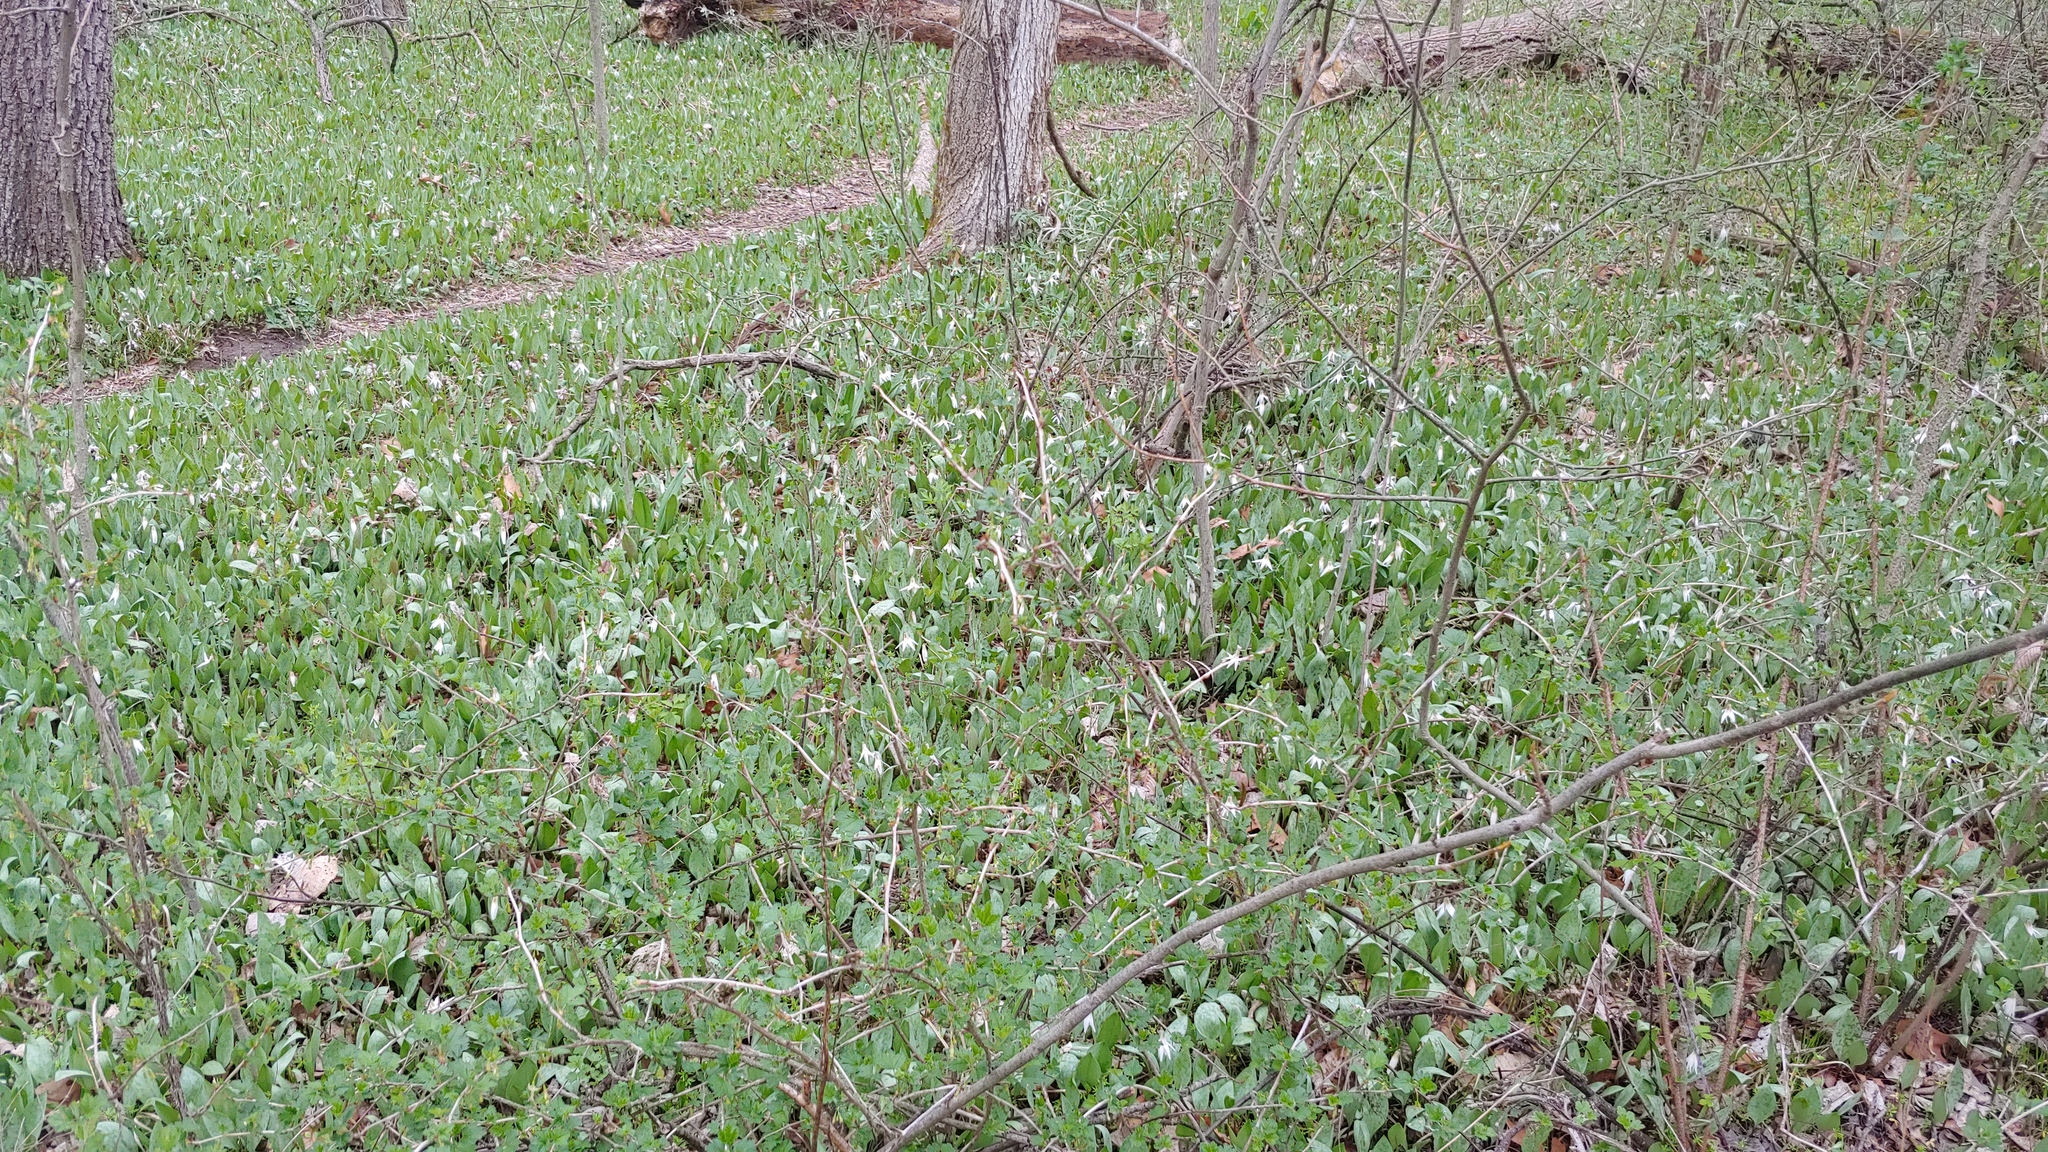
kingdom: Plantae
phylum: Tracheophyta
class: Liliopsida
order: Liliales
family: Liliaceae
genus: Erythronium
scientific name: Erythronium albidum
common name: White trout-lily
